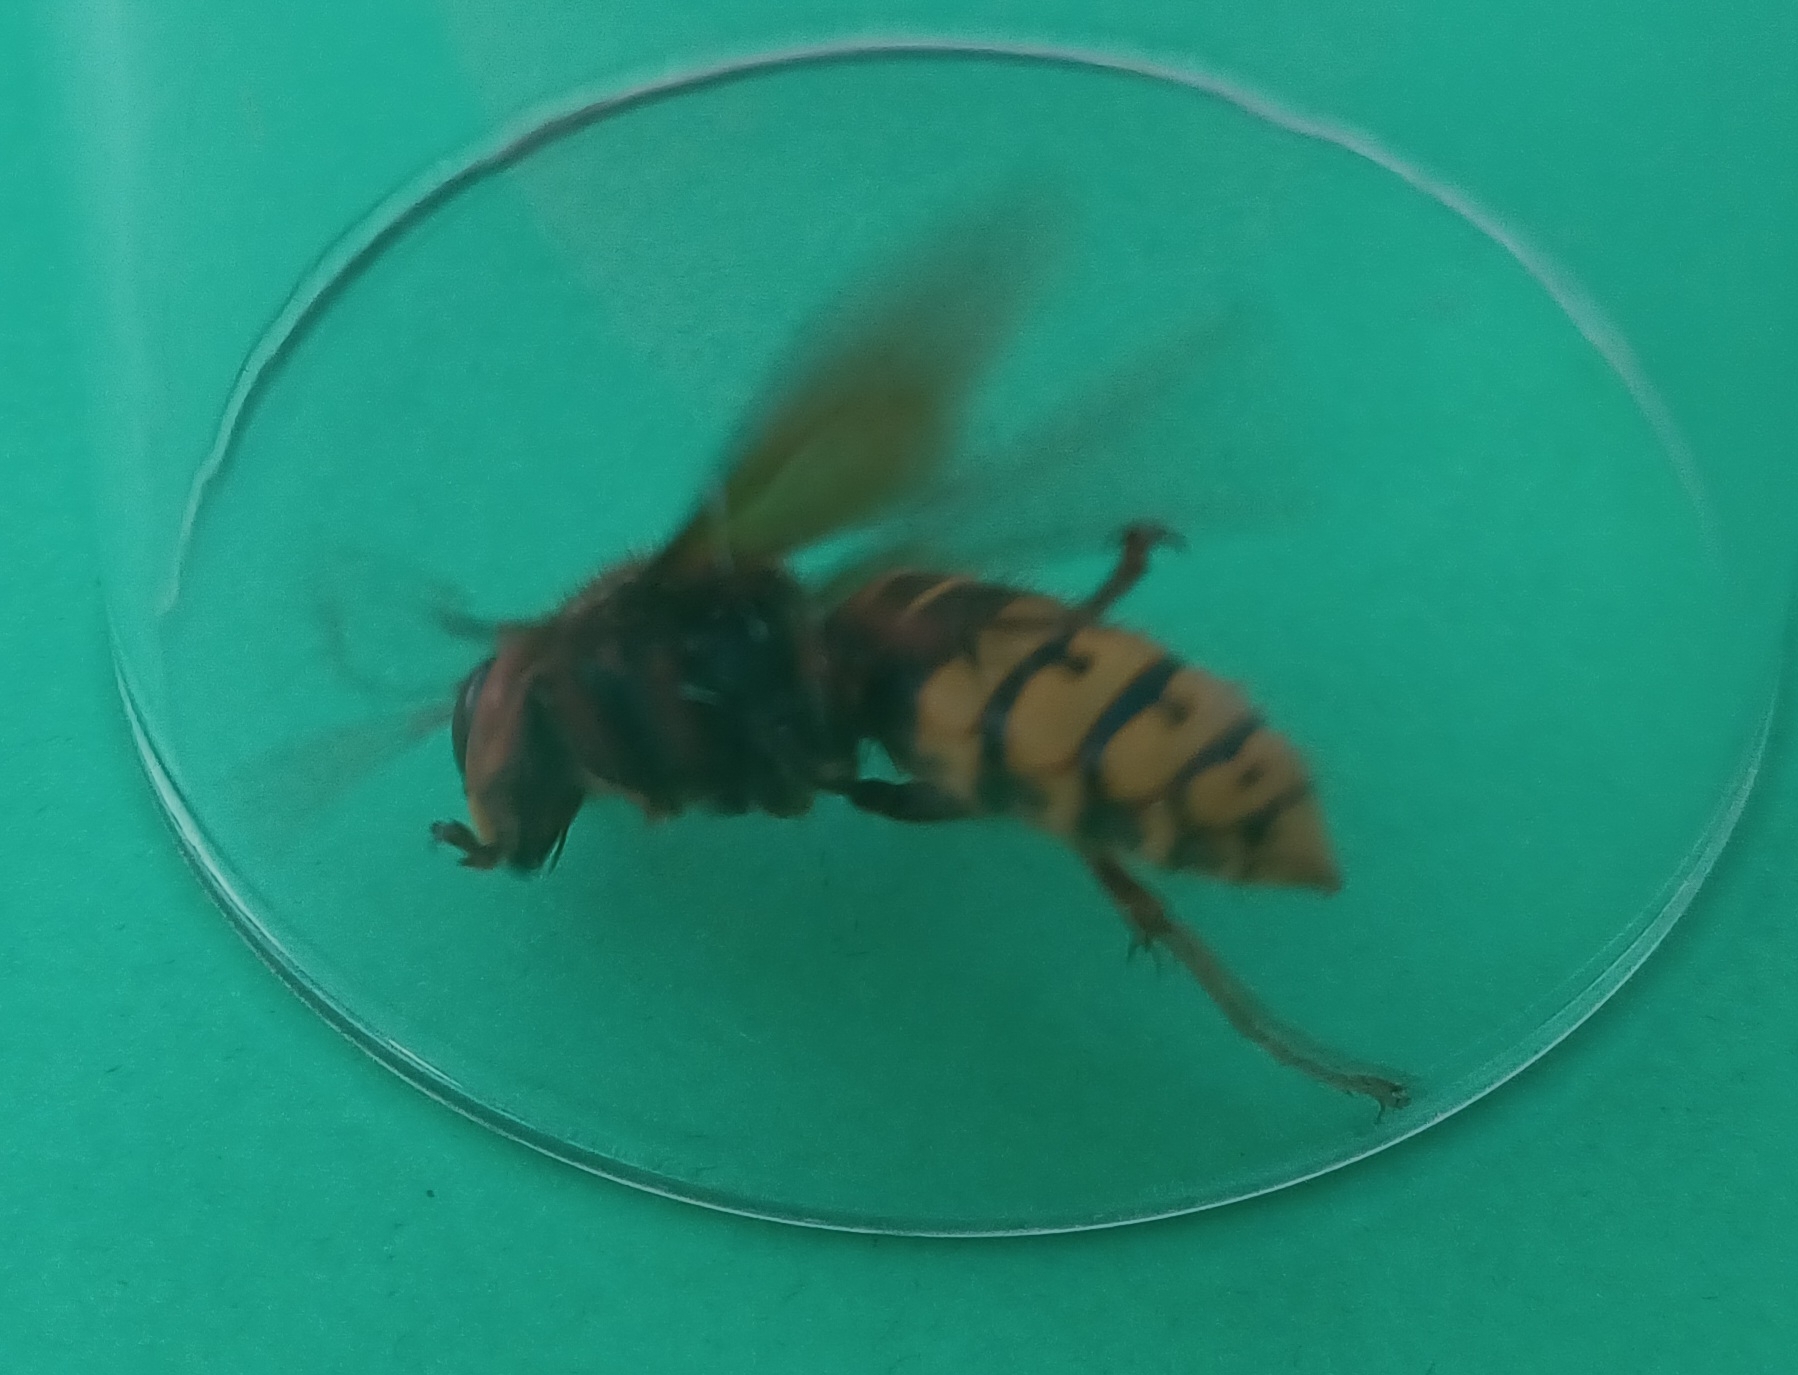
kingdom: Animalia
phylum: Arthropoda
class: Insecta
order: Hymenoptera
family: Vespidae
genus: Vespa
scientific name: Vespa crabro
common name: Hornet
